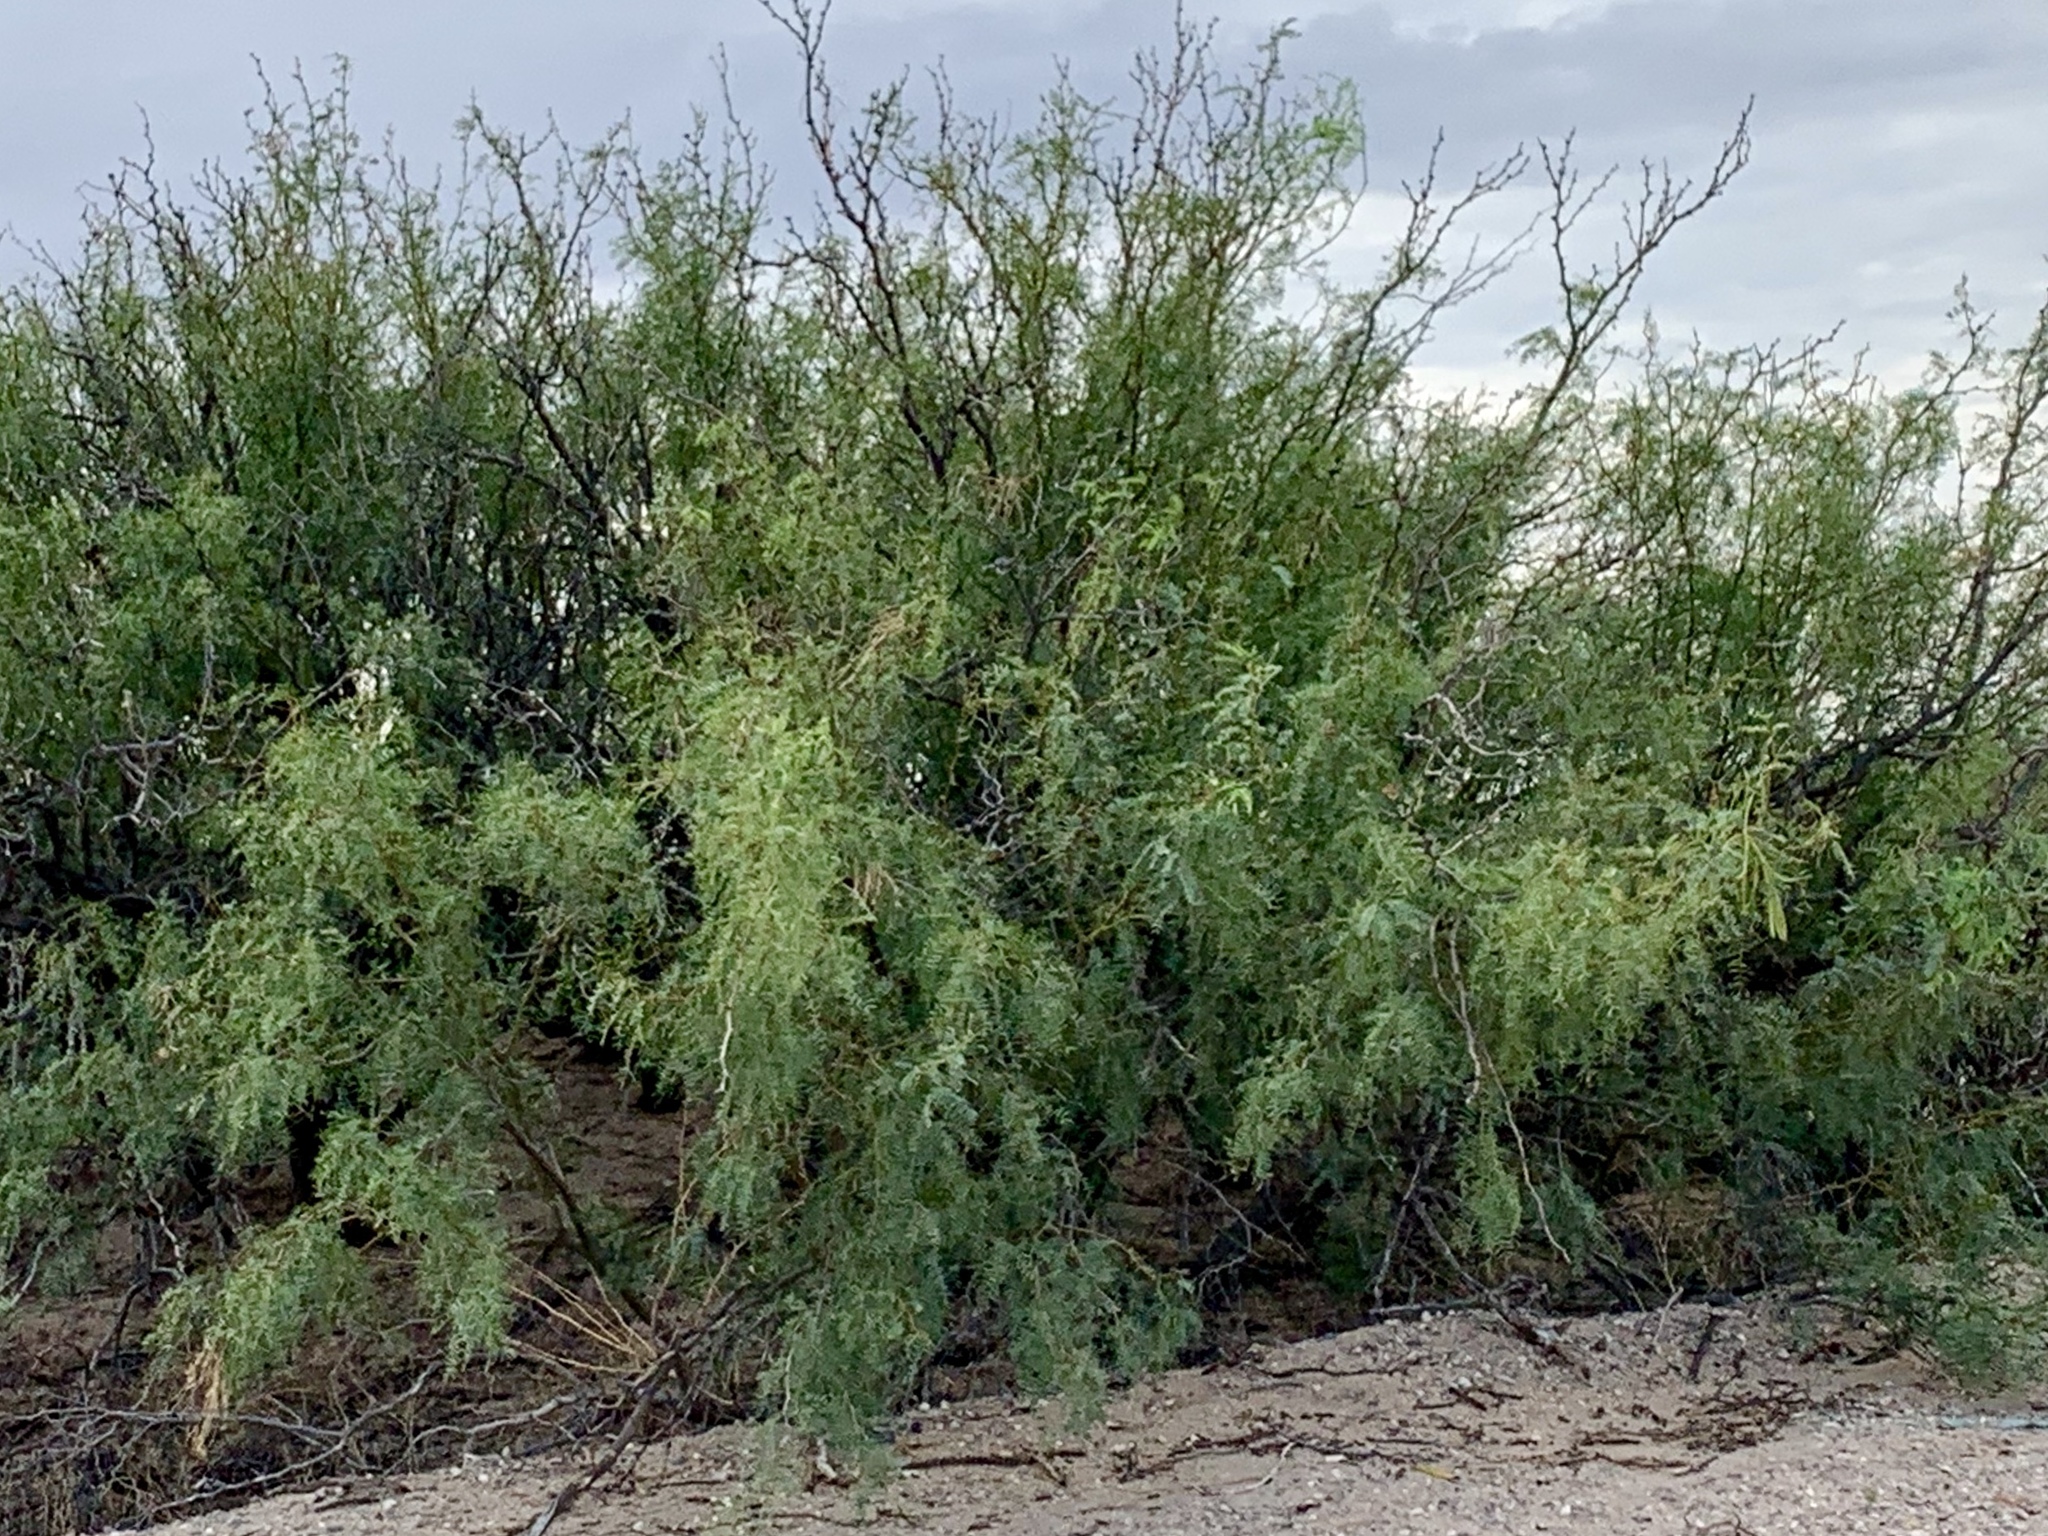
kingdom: Plantae
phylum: Tracheophyta
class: Magnoliopsida
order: Fabales
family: Fabaceae
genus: Prosopis
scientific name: Prosopis glandulosa
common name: Honey mesquite
